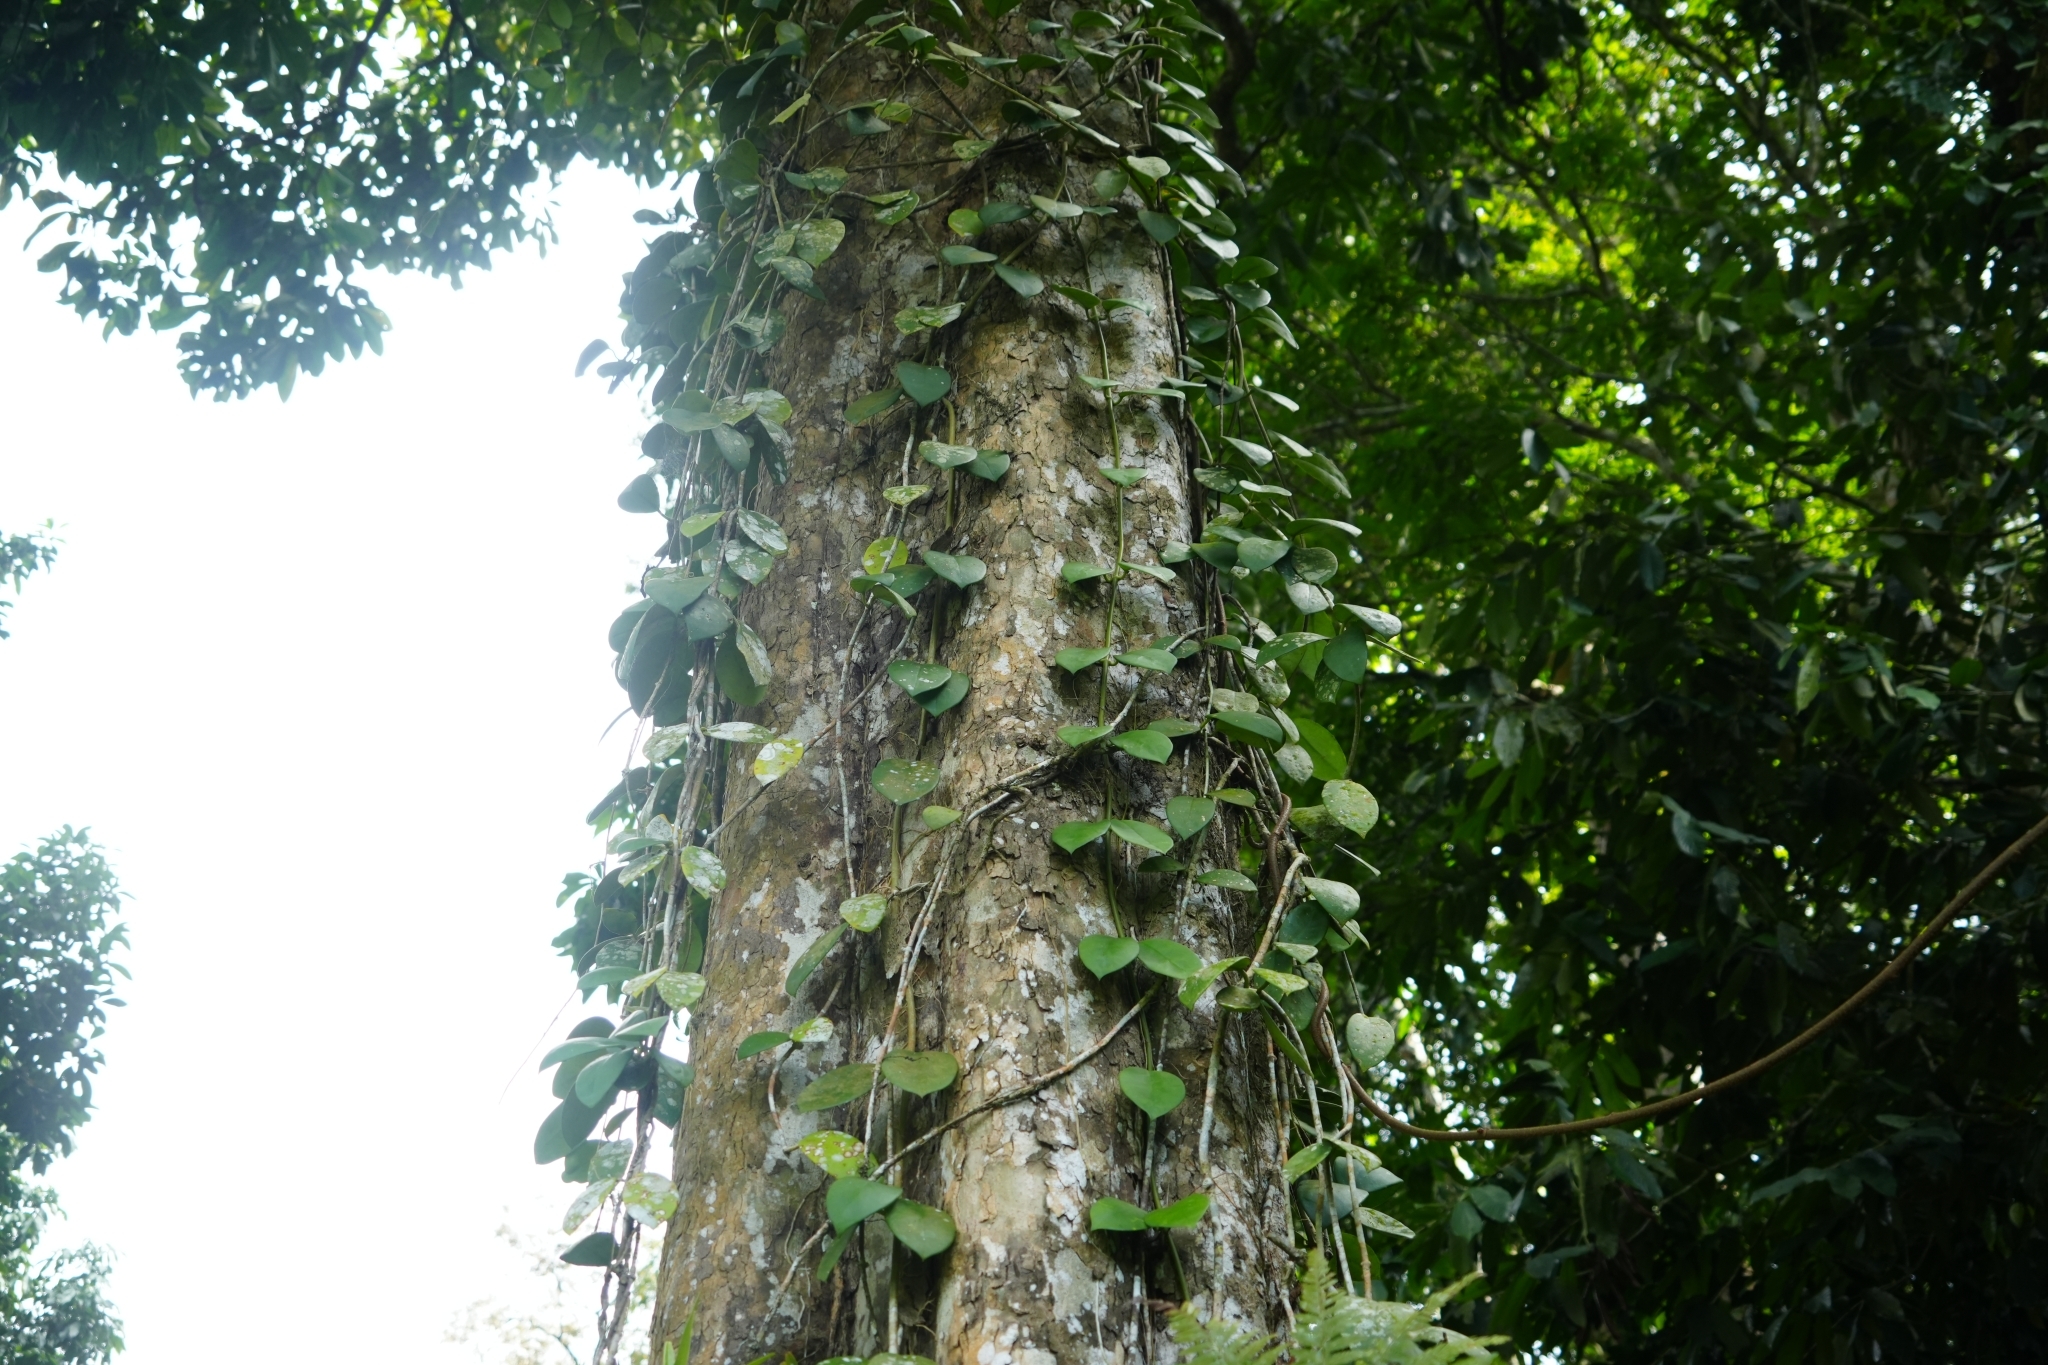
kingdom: Plantae
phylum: Tracheophyta
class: Magnoliopsida
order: Gentianales
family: Apocynaceae
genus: Hoya
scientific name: Hoya diversifolia
